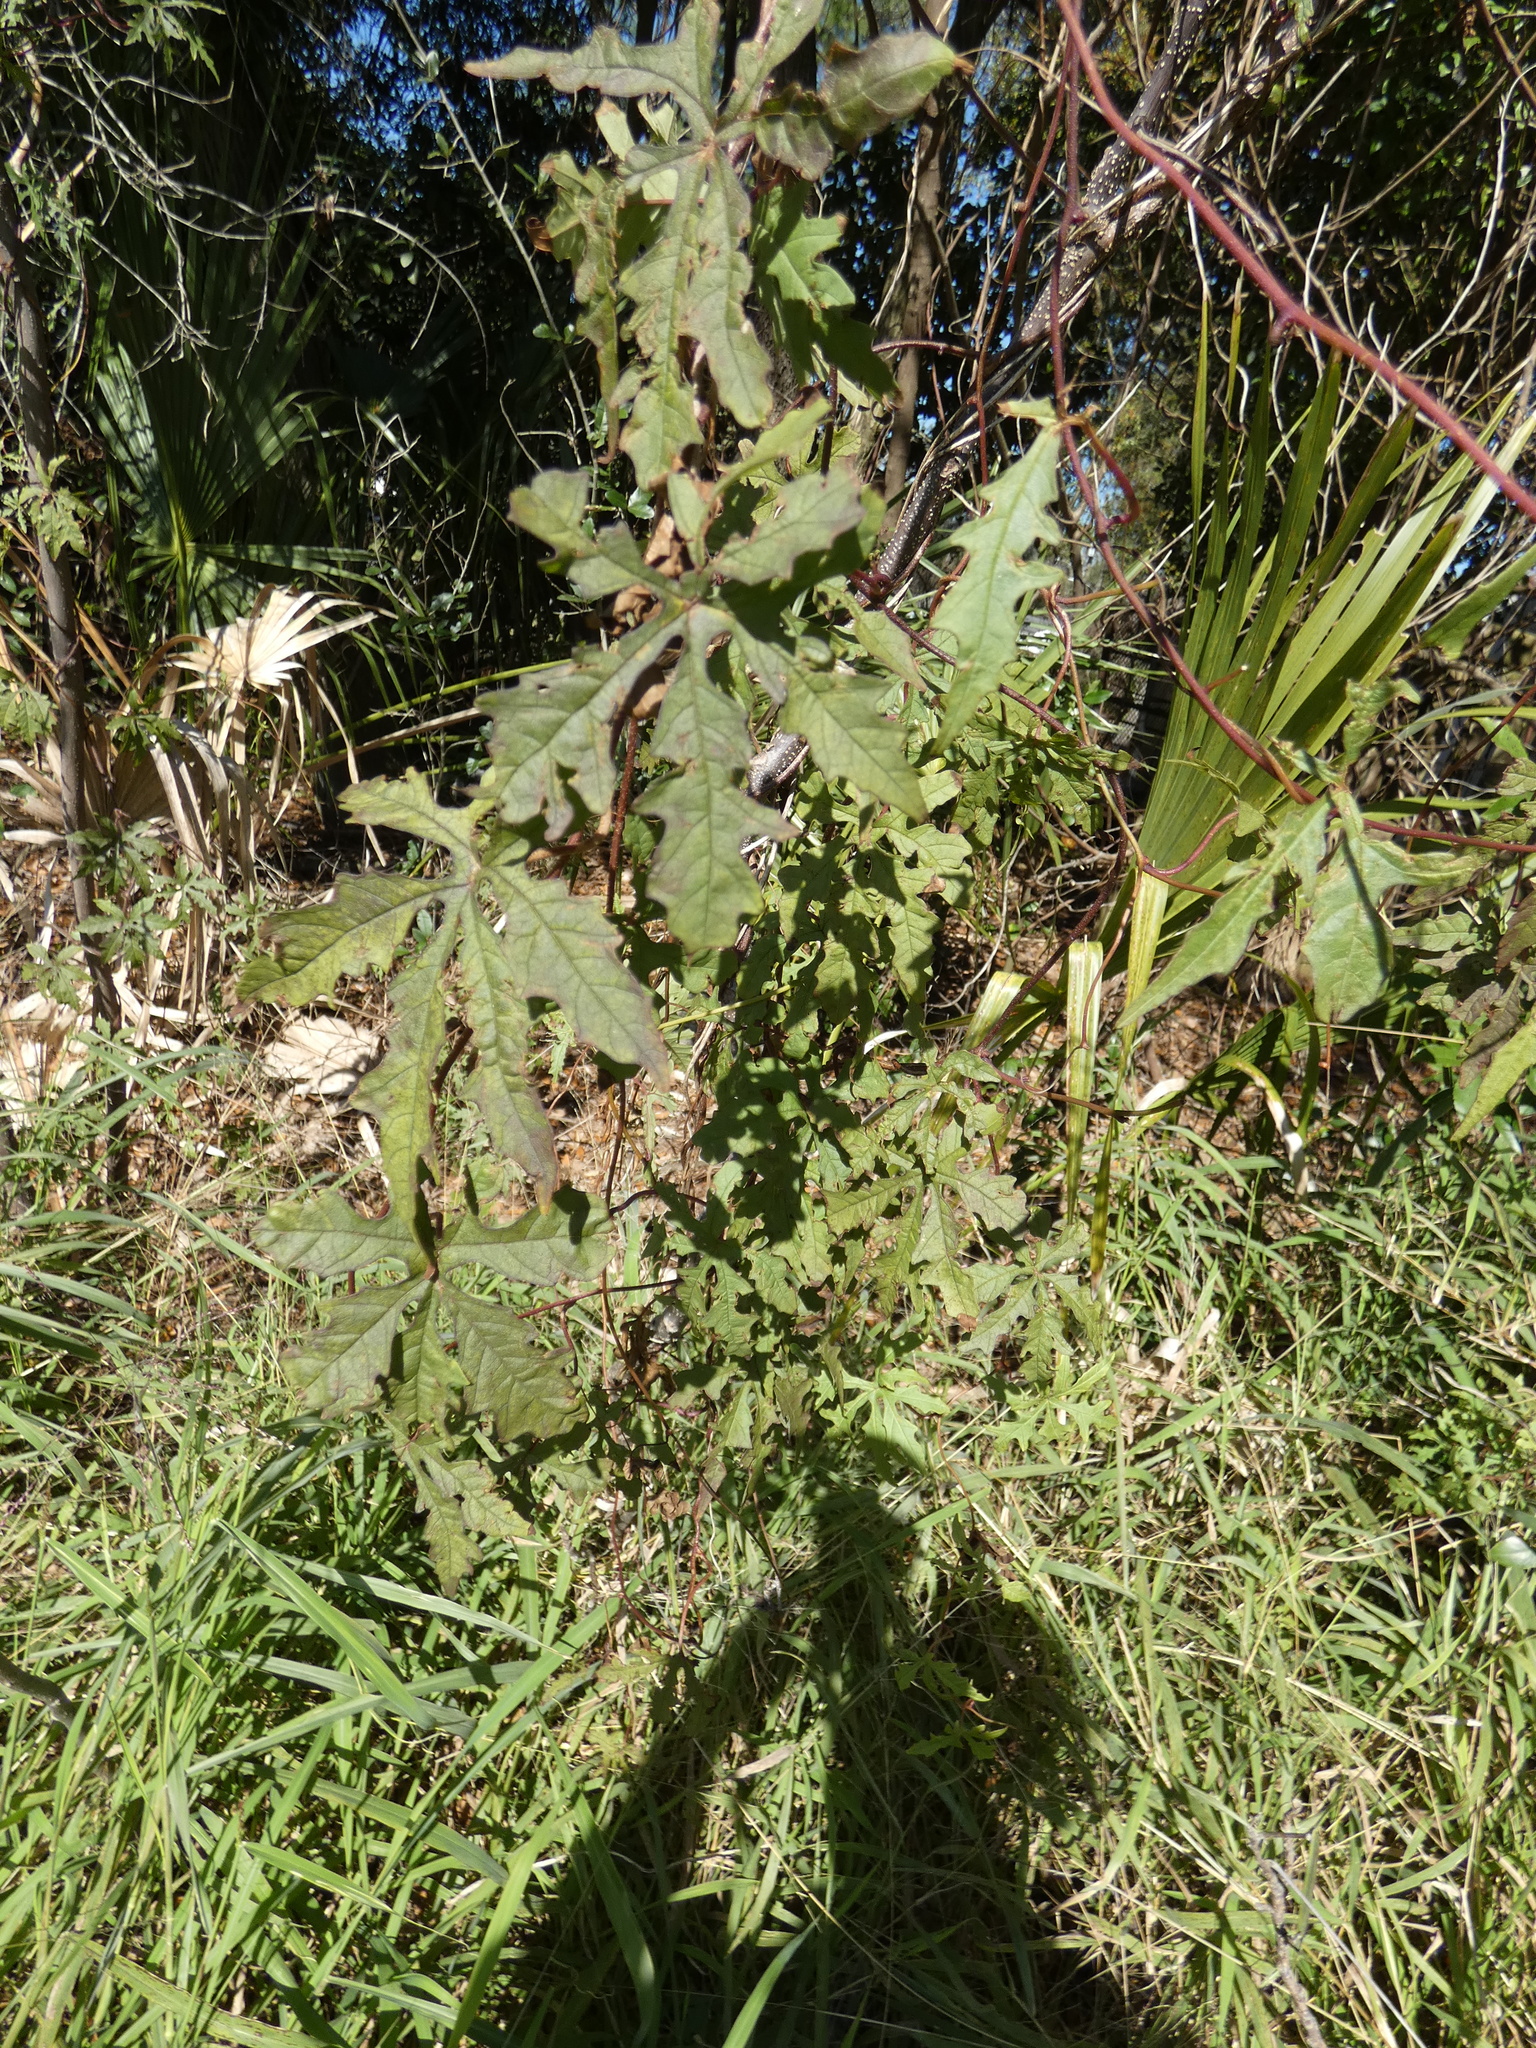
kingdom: Plantae
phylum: Tracheophyta
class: Magnoliopsida
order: Solanales
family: Convolvulaceae
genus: Distimake
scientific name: Distimake dissectus
